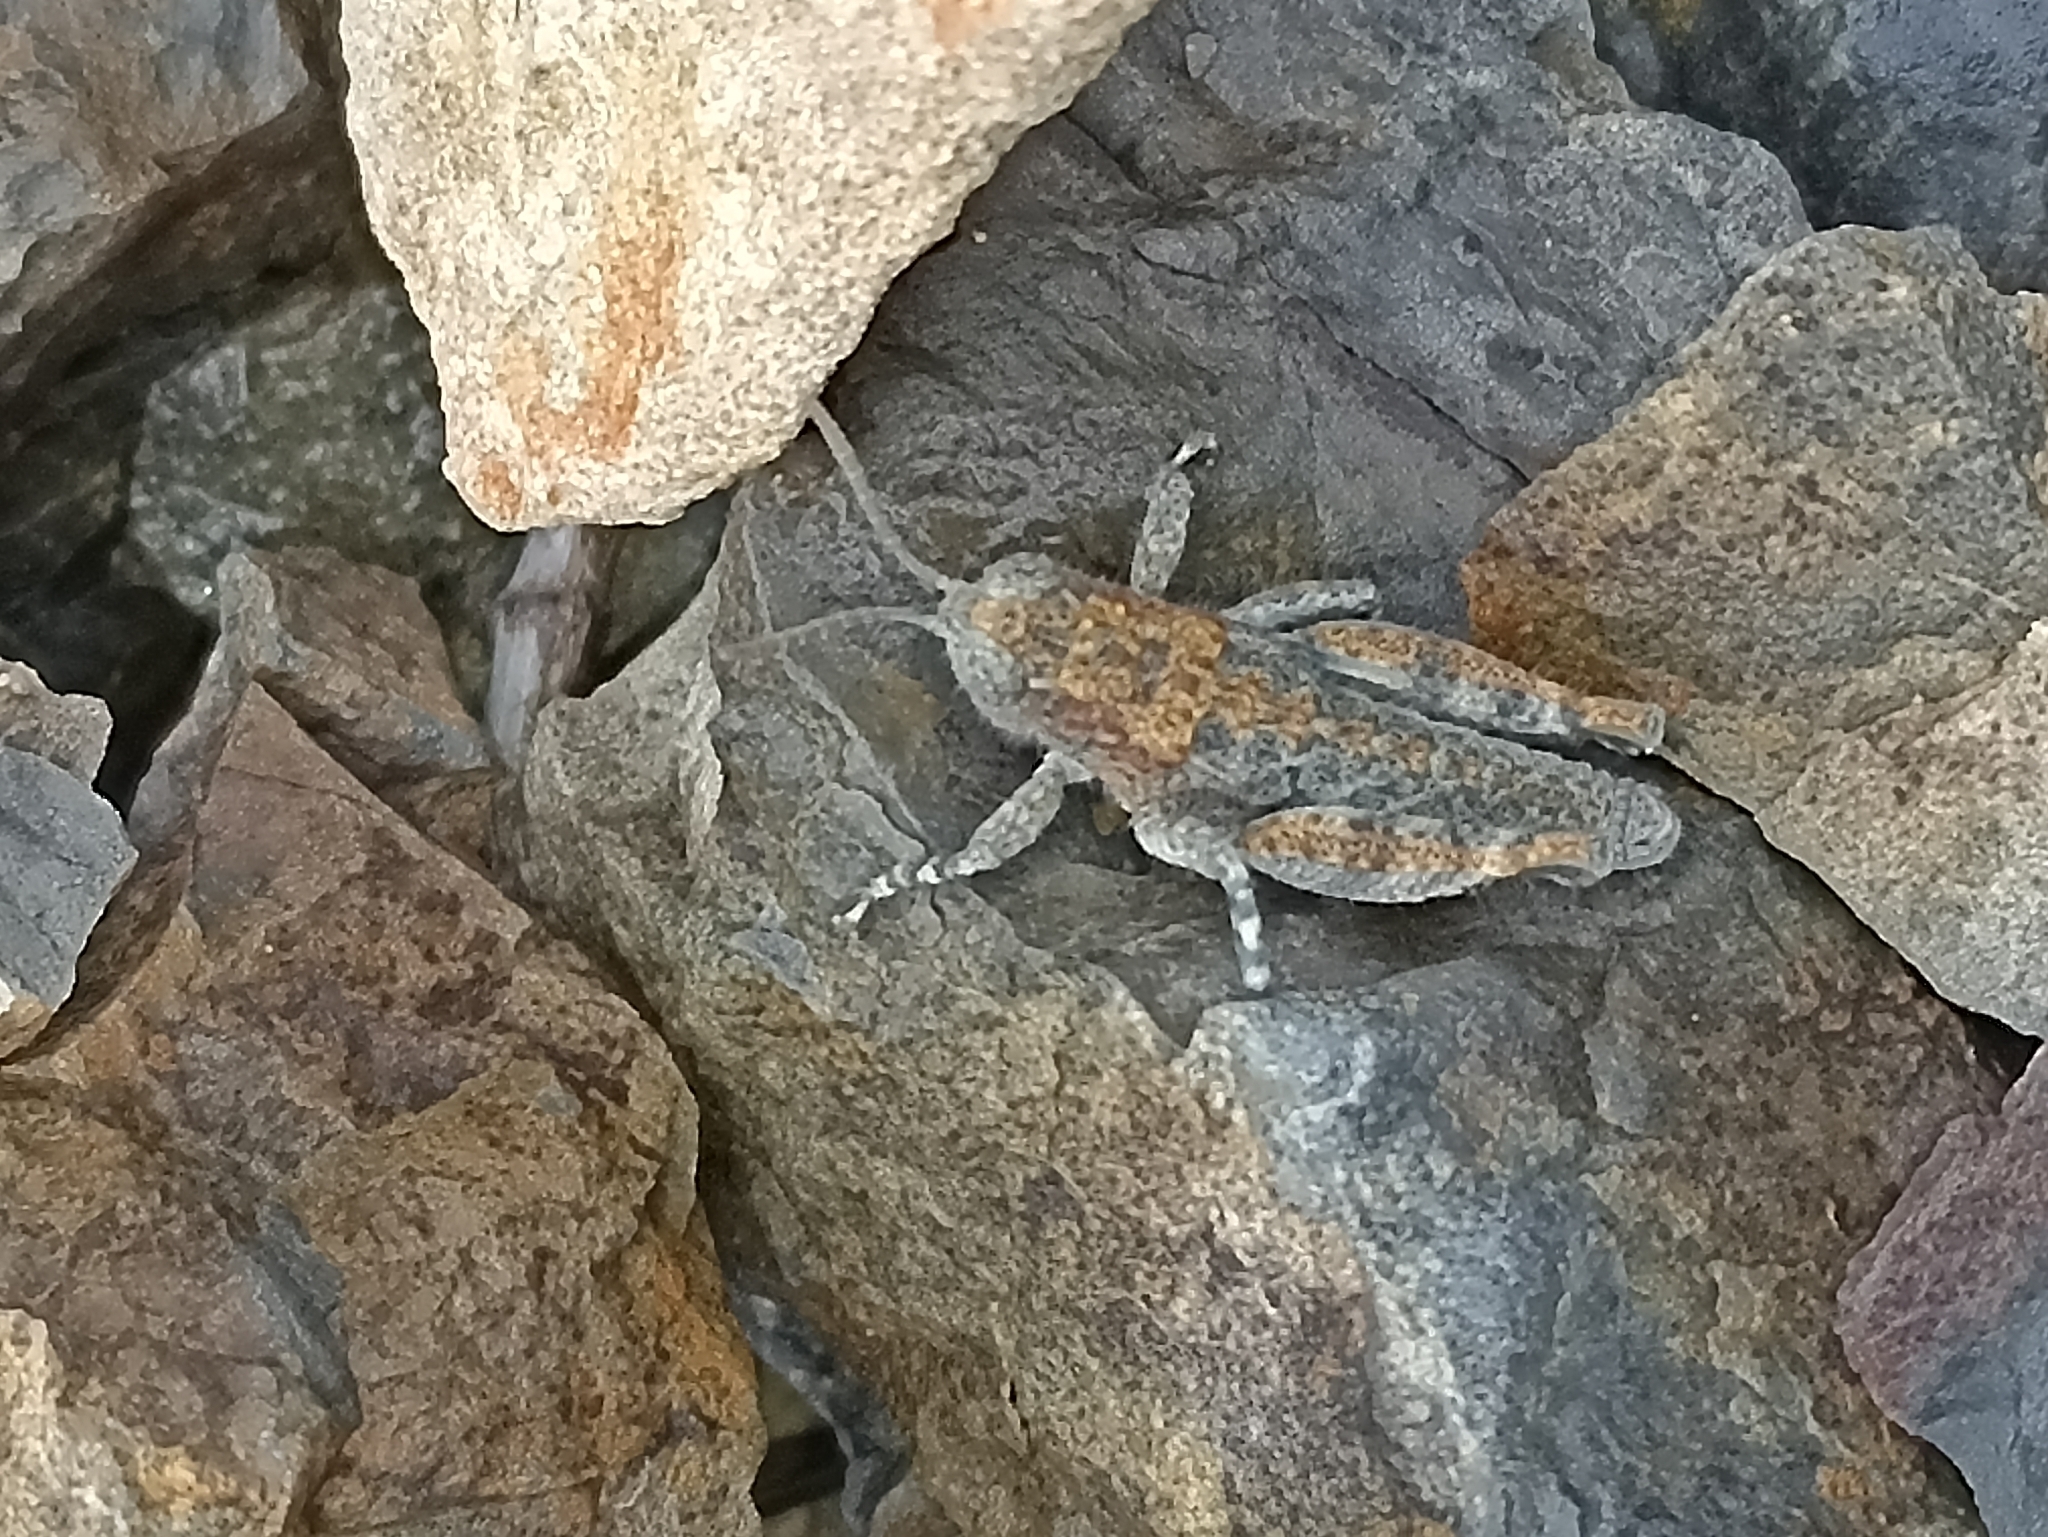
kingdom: Animalia
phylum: Arthropoda
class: Insecta
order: Orthoptera
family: Acrididae
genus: Sigaus
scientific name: Sigaus
